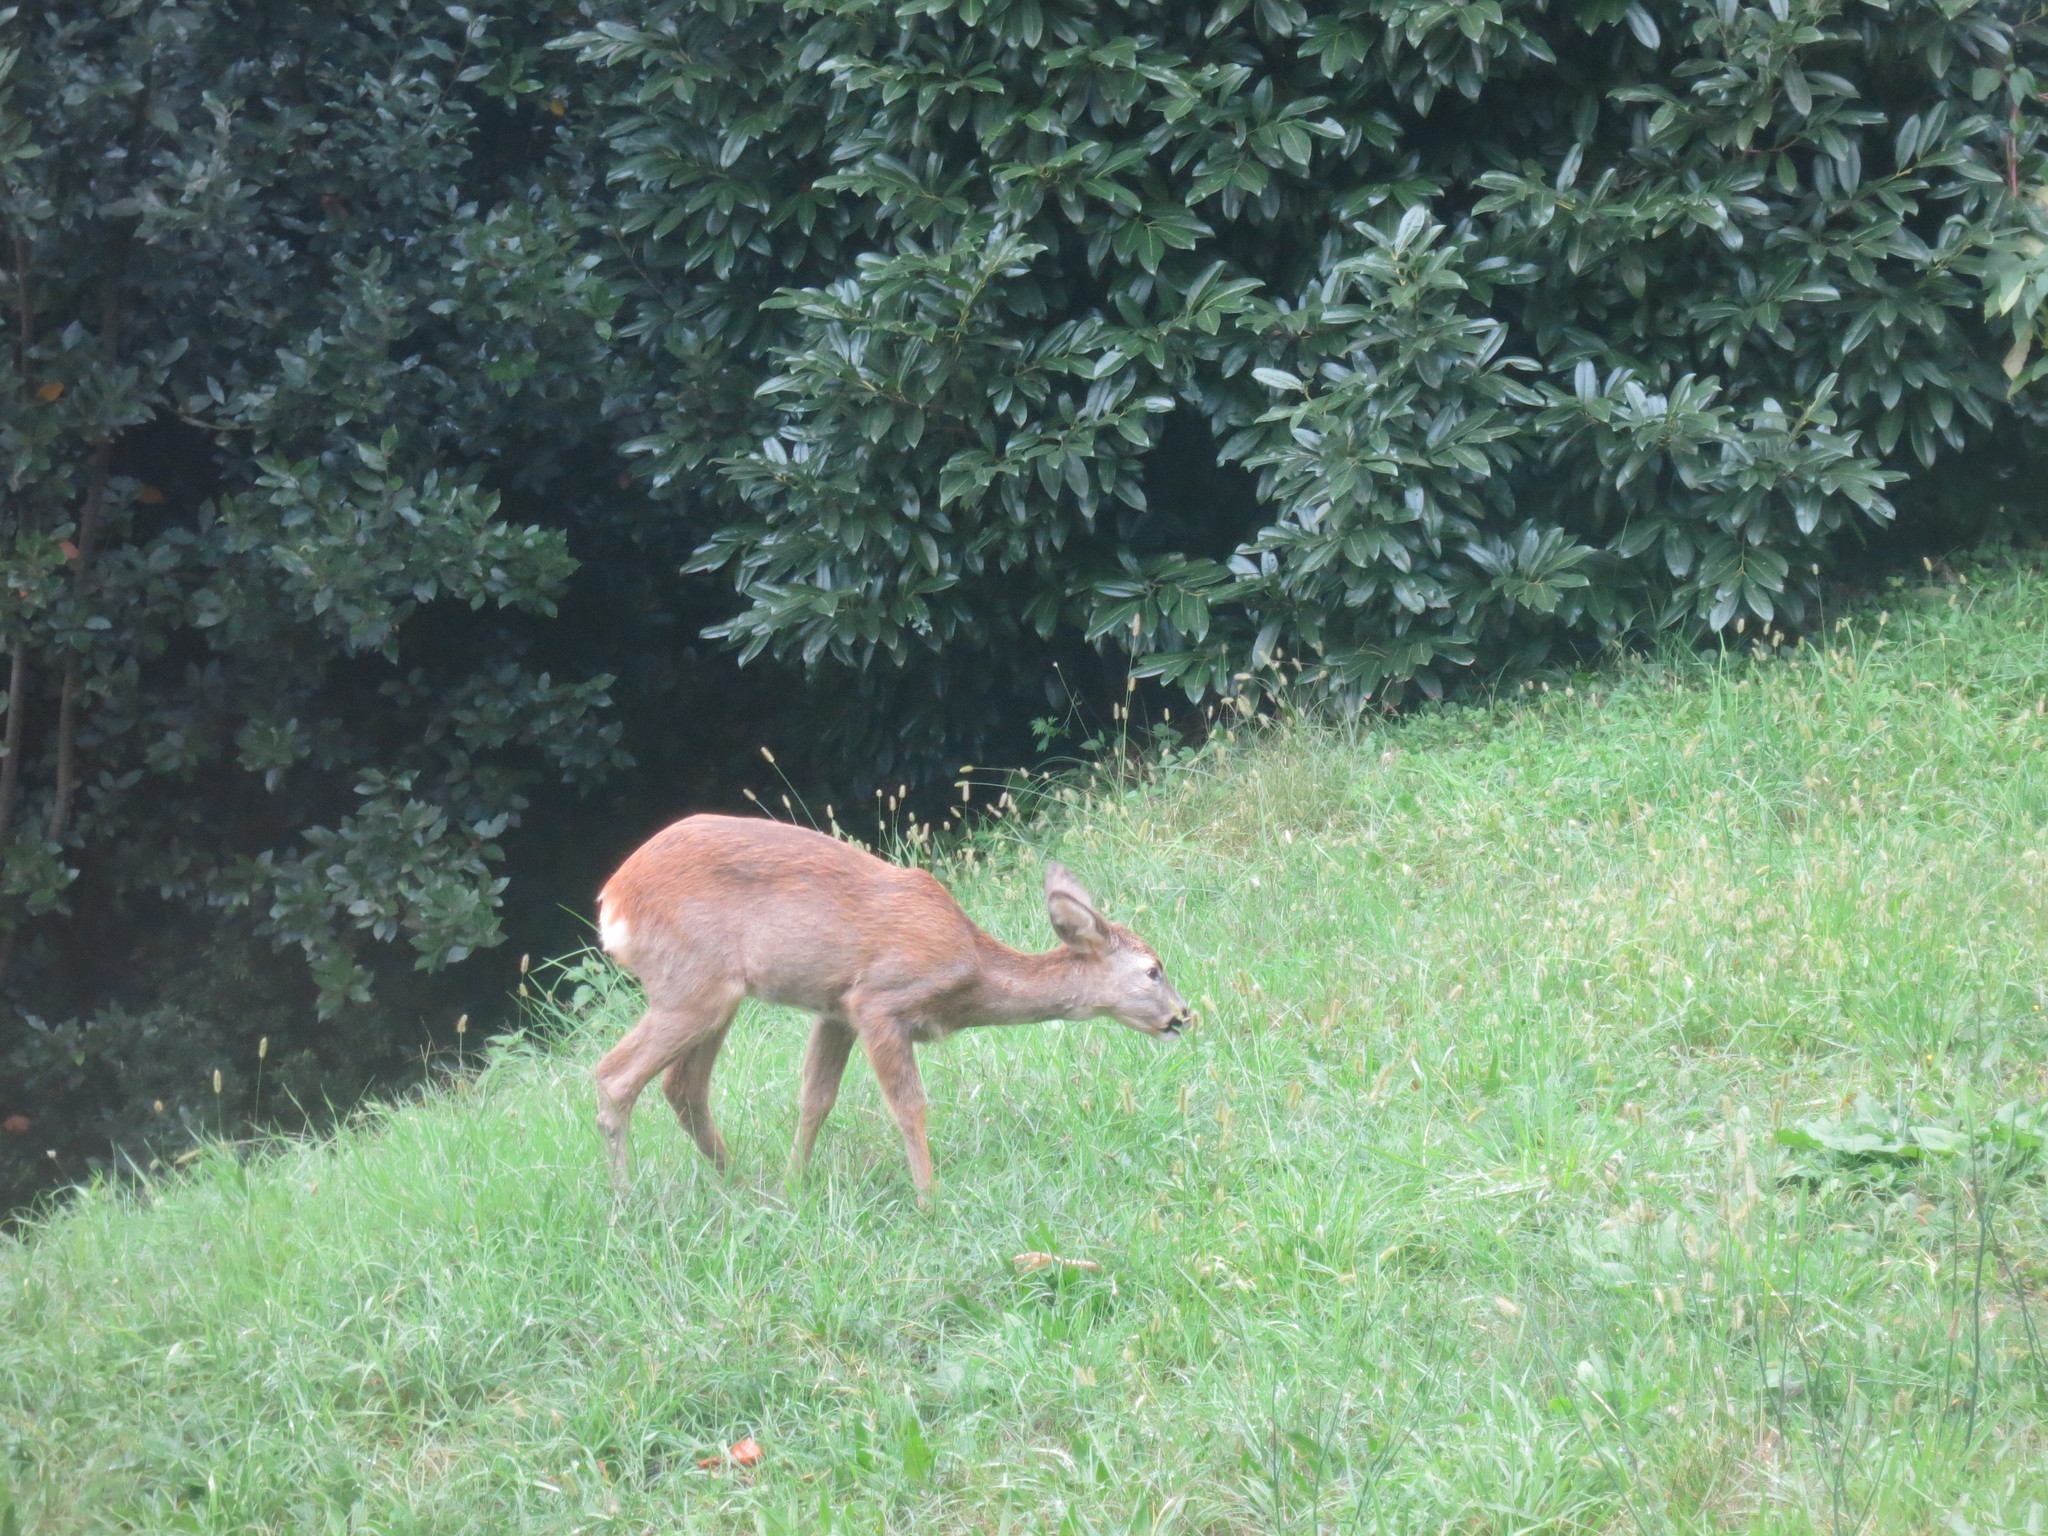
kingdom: Animalia
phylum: Chordata
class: Mammalia
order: Artiodactyla
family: Cervidae
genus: Capreolus
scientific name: Capreolus capreolus
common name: Western roe deer
